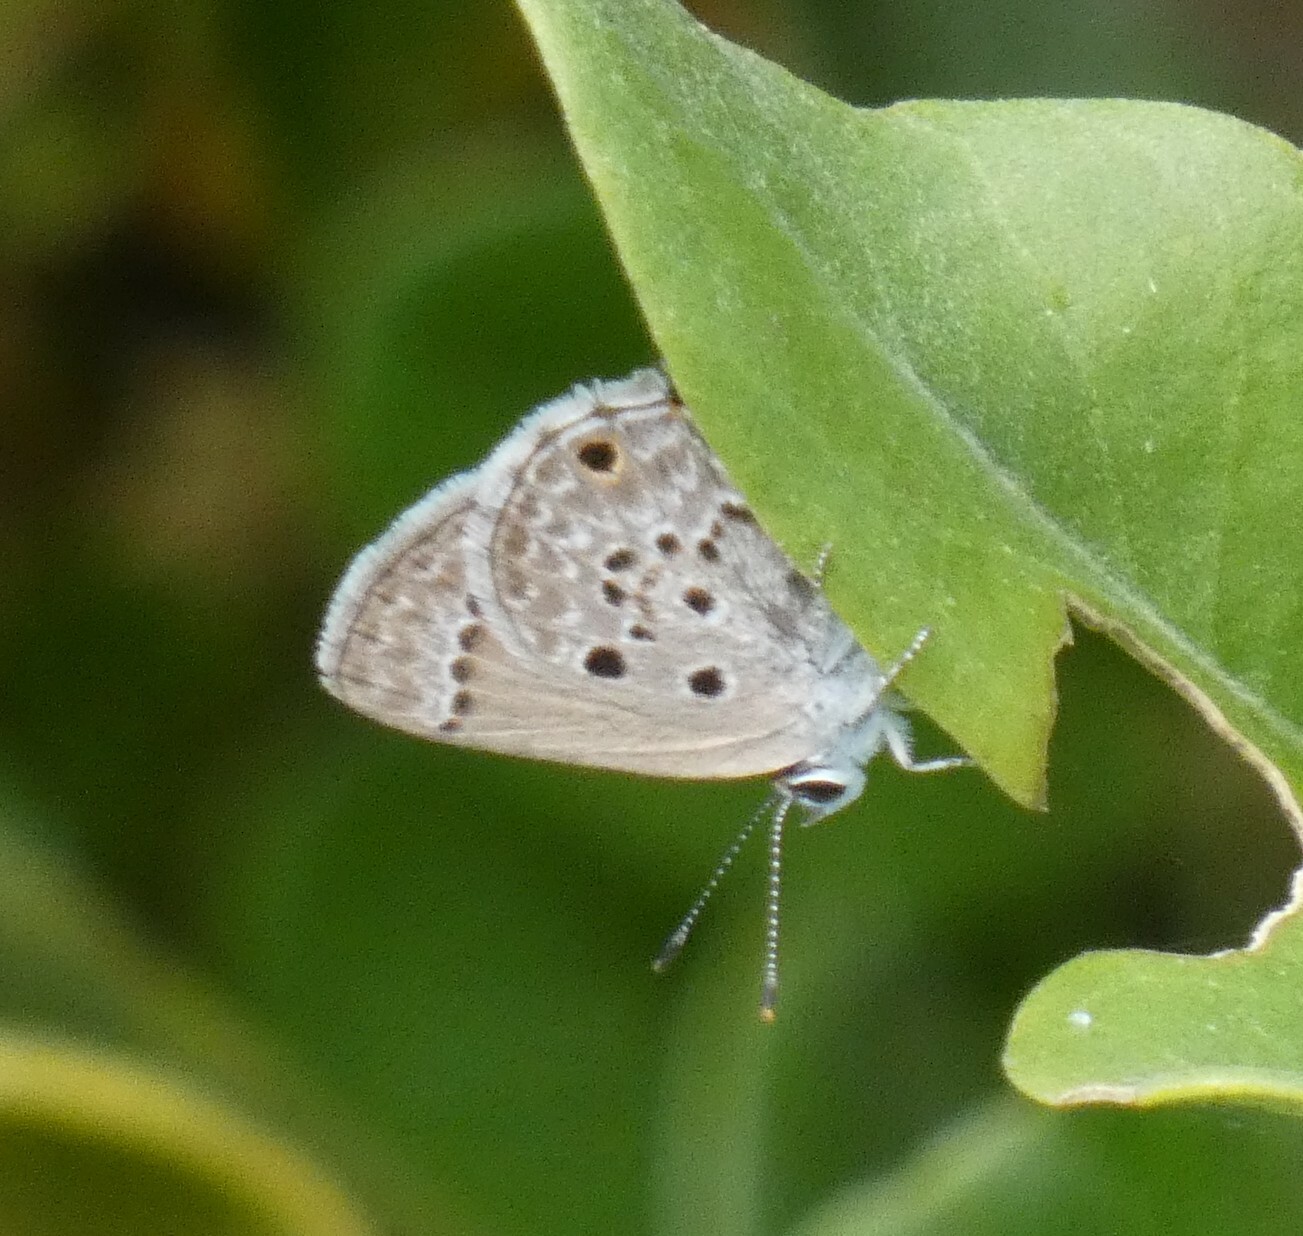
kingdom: Animalia
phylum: Arthropoda
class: Insecta
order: Lepidoptera
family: Lycaenidae
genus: Strymon
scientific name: Strymon bubastus
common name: Bubastes hairstreak
